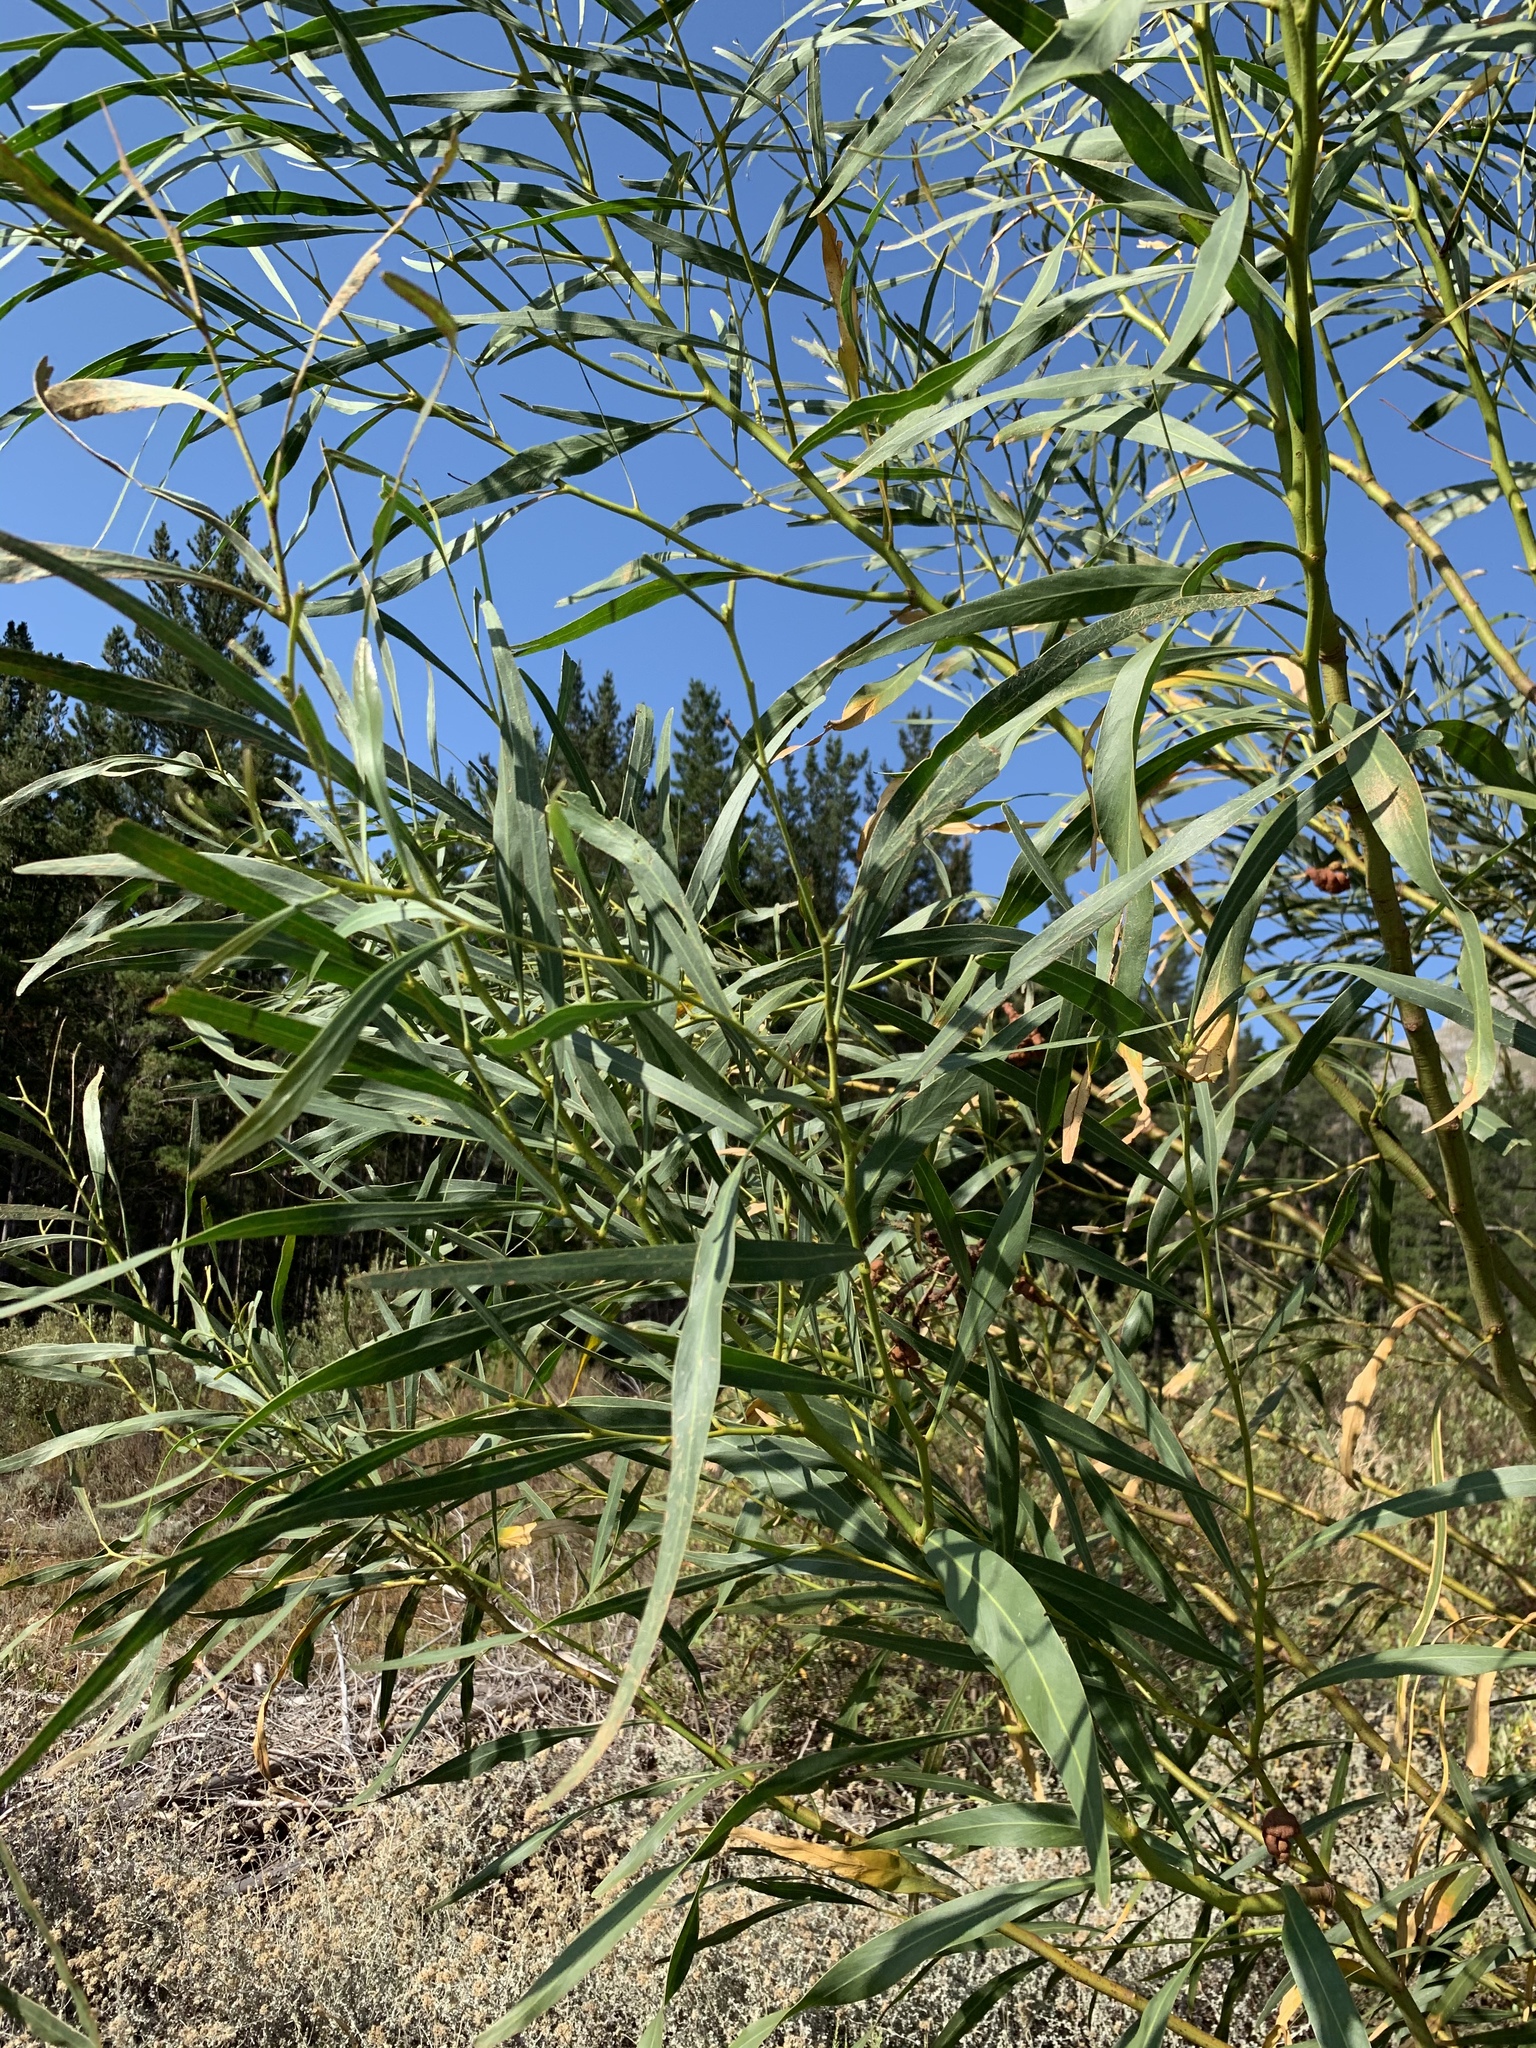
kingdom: Plantae
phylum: Tracheophyta
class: Magnoliopsida
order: Fabales
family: Fabaceae
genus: Acacia
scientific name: Acacia saligna
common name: Orange wattle
